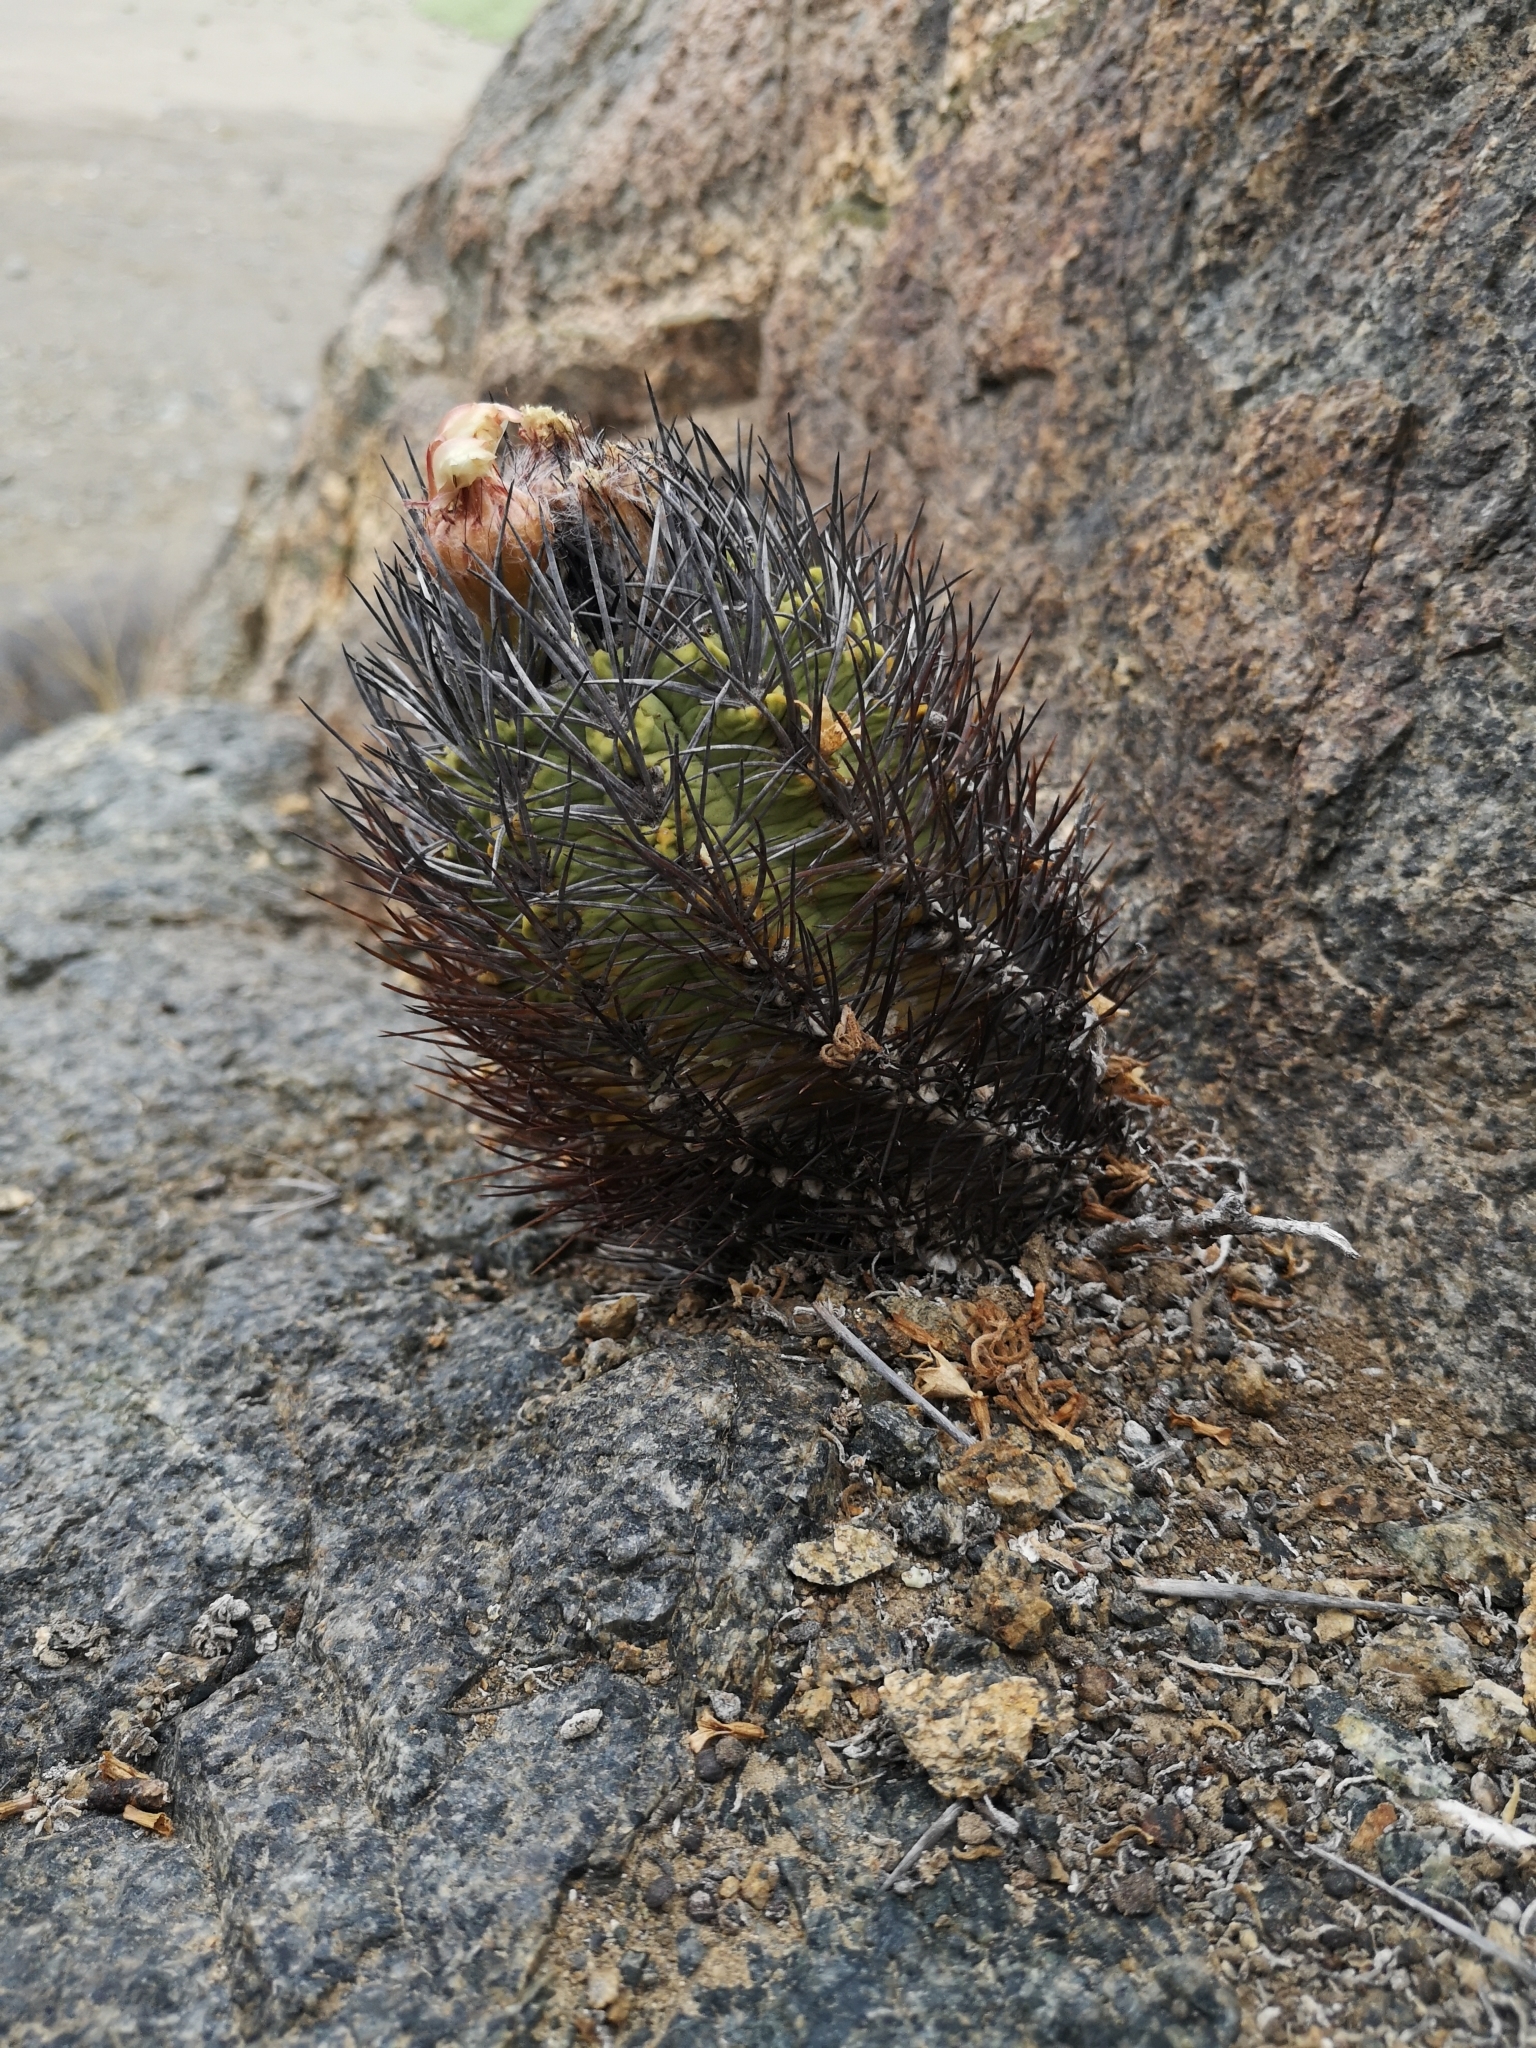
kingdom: Plantae
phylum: Tracheophyta
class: Magnoliopsida
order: Caryophyllales
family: Cactaceae
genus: Eriosyce
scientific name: Eriosyce paucicostata
